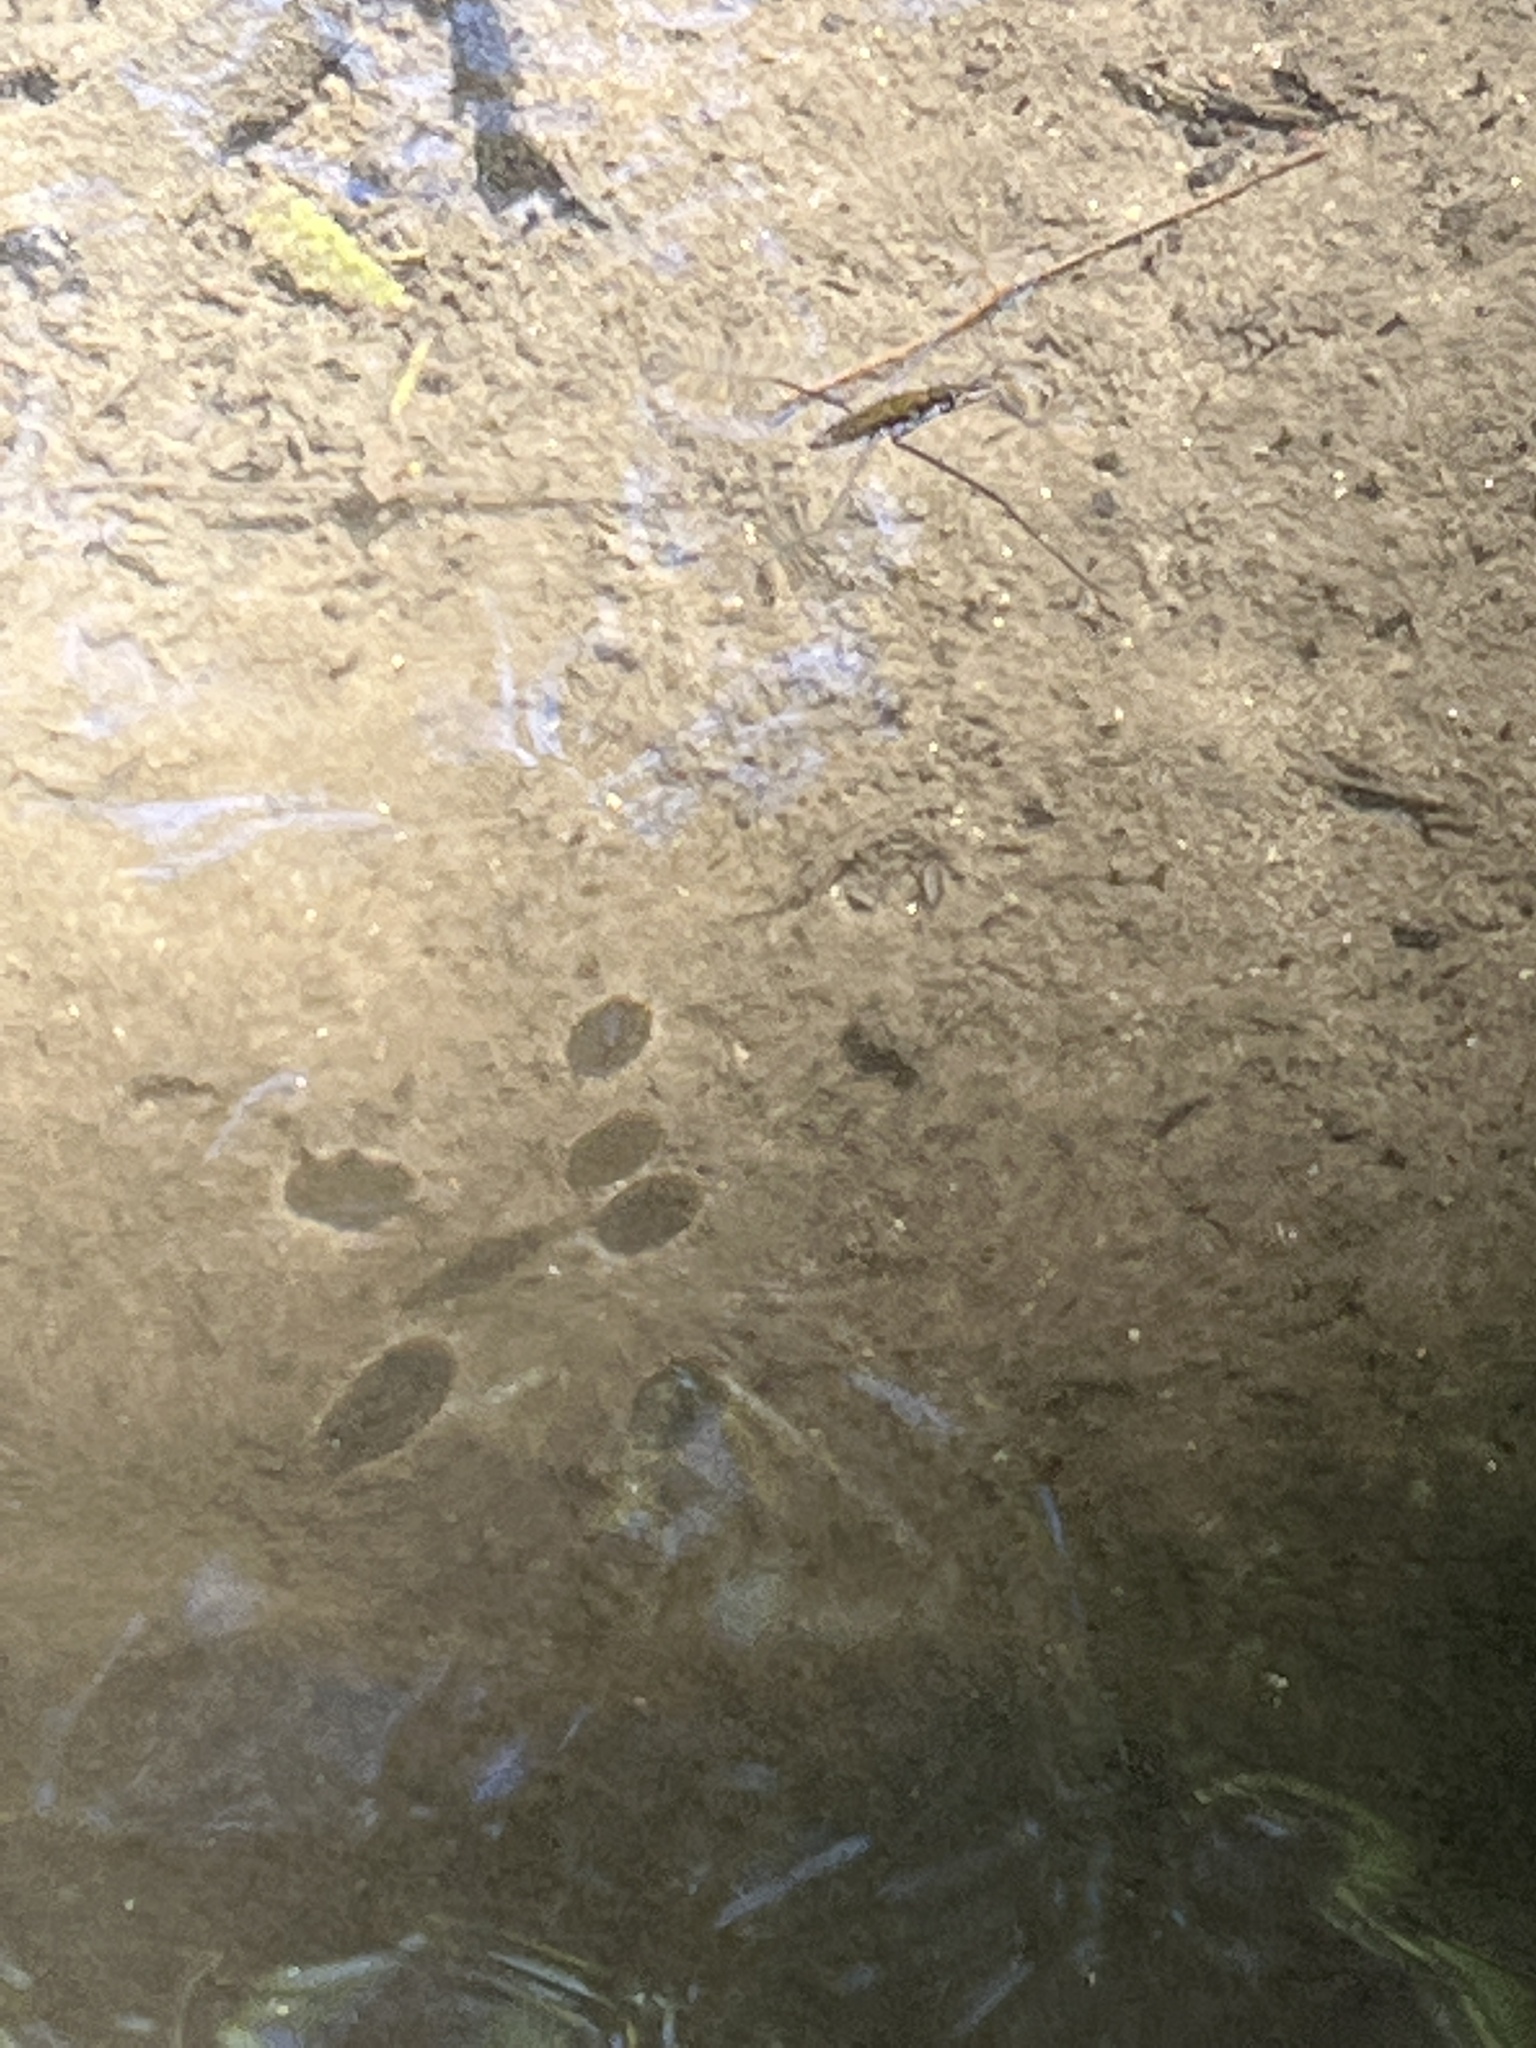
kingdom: Animalia
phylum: Arthropoda
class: Insecta
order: Hemiptera
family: Gerridae
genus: Aquarius
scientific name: Aquarius remigis
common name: Common water strider
